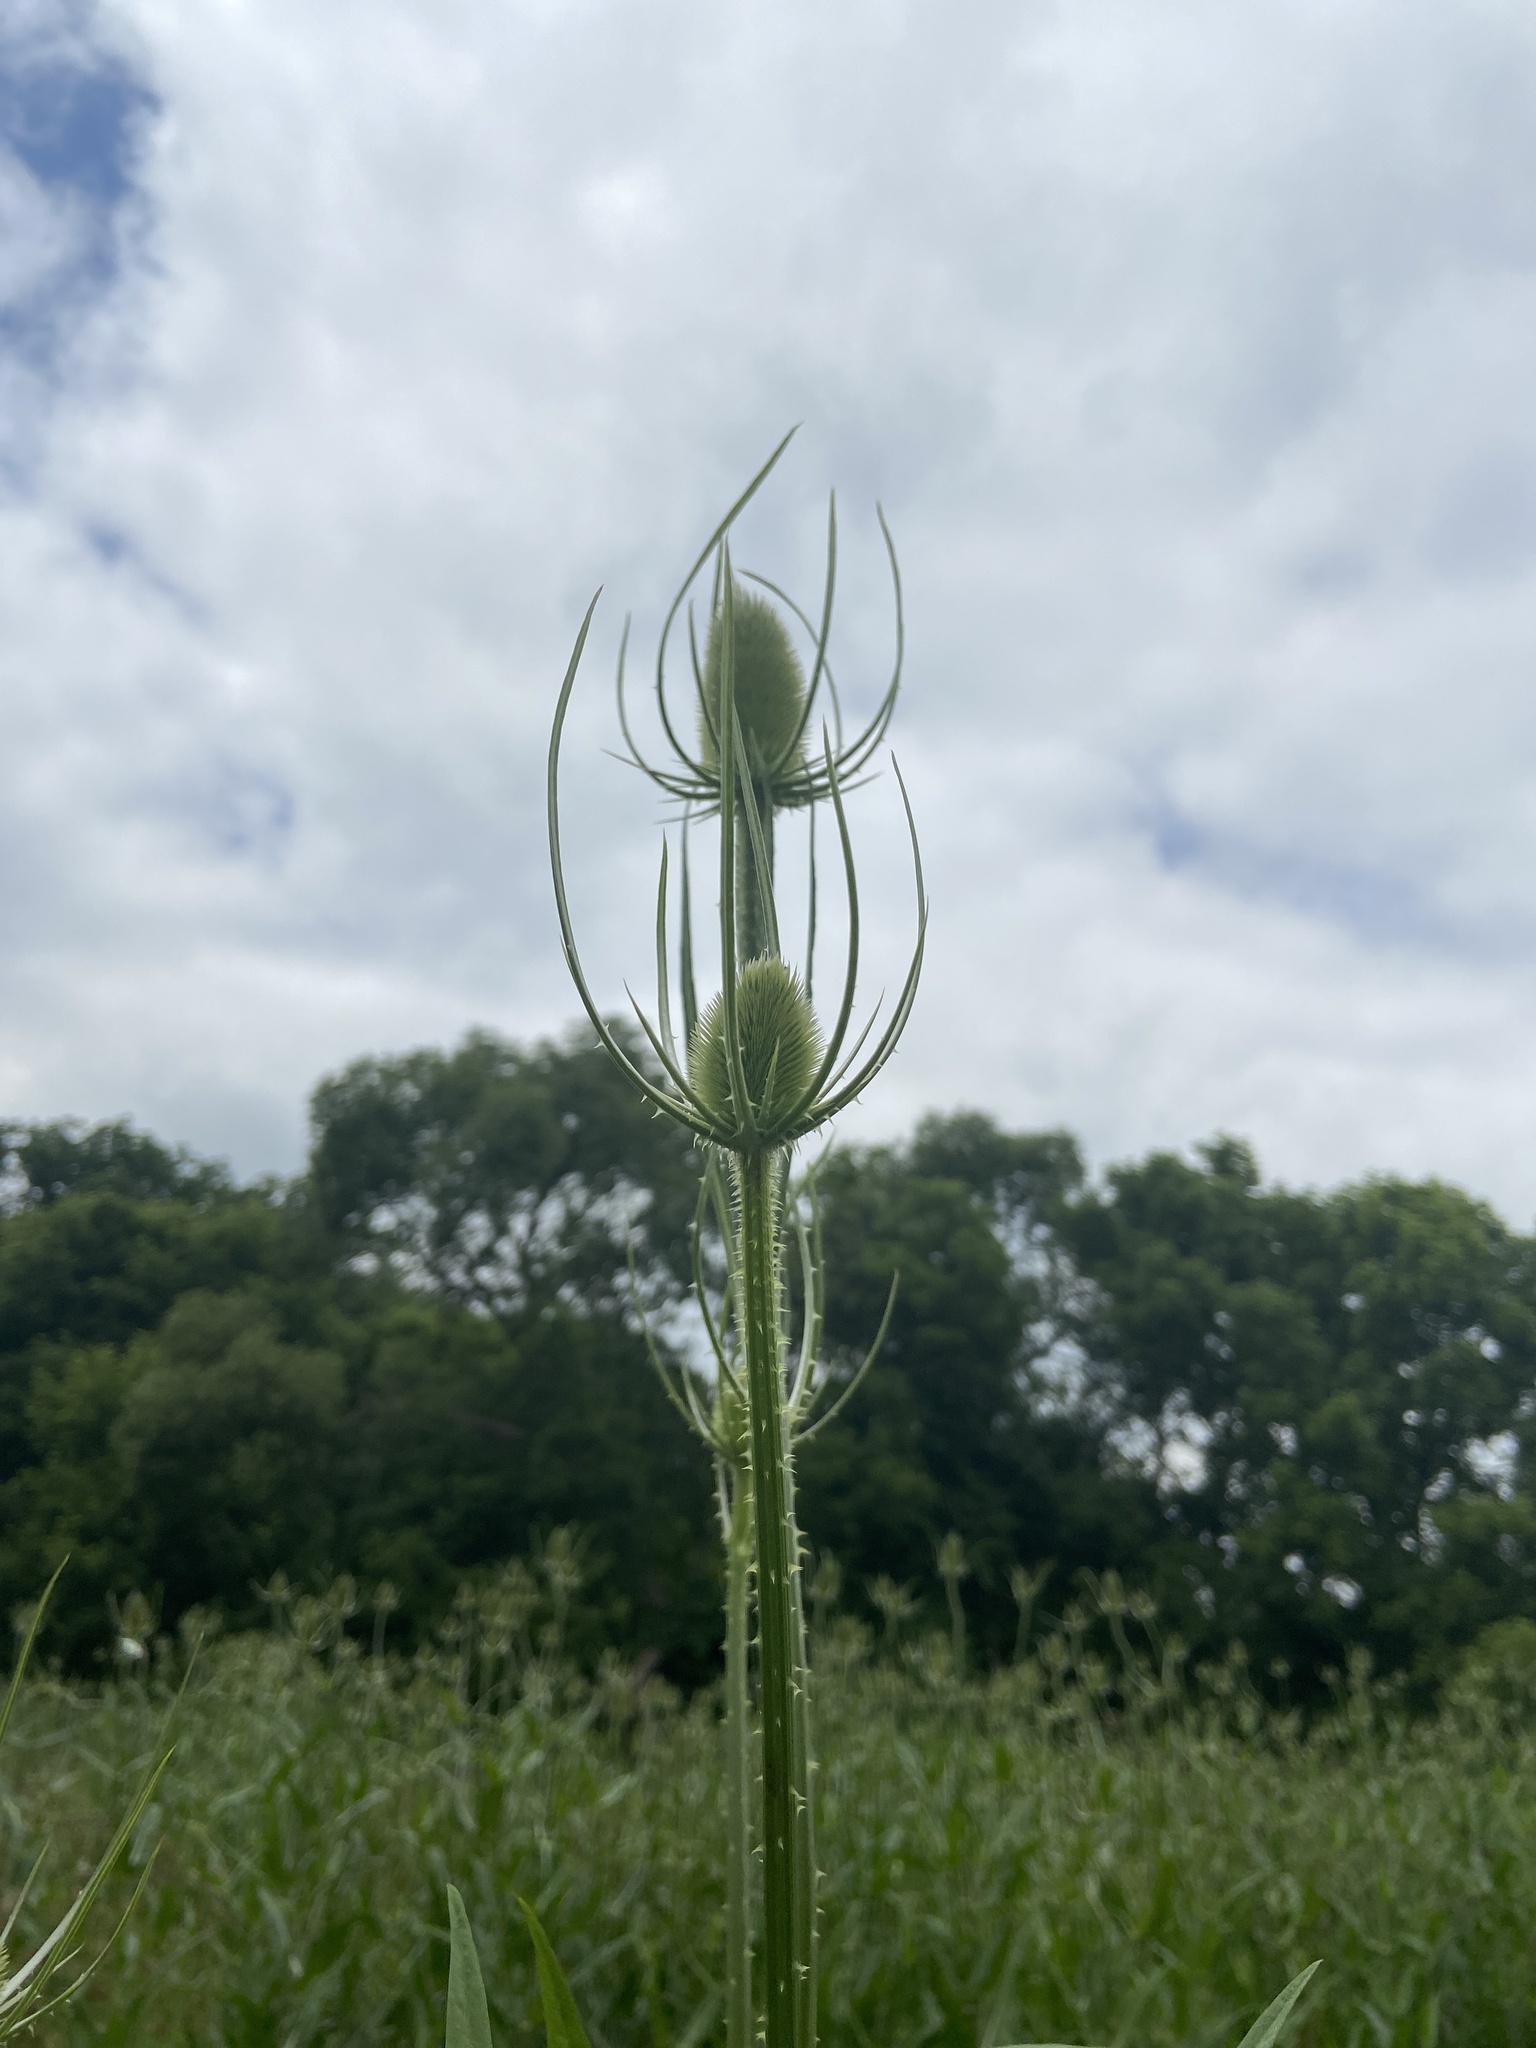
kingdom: Plantae
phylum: Tracheophyta
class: Magnoliopsida
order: Dipsacales
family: Caprifoliaceae
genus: Dipsacus
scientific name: Dipsacus fullonum
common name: Teasel
